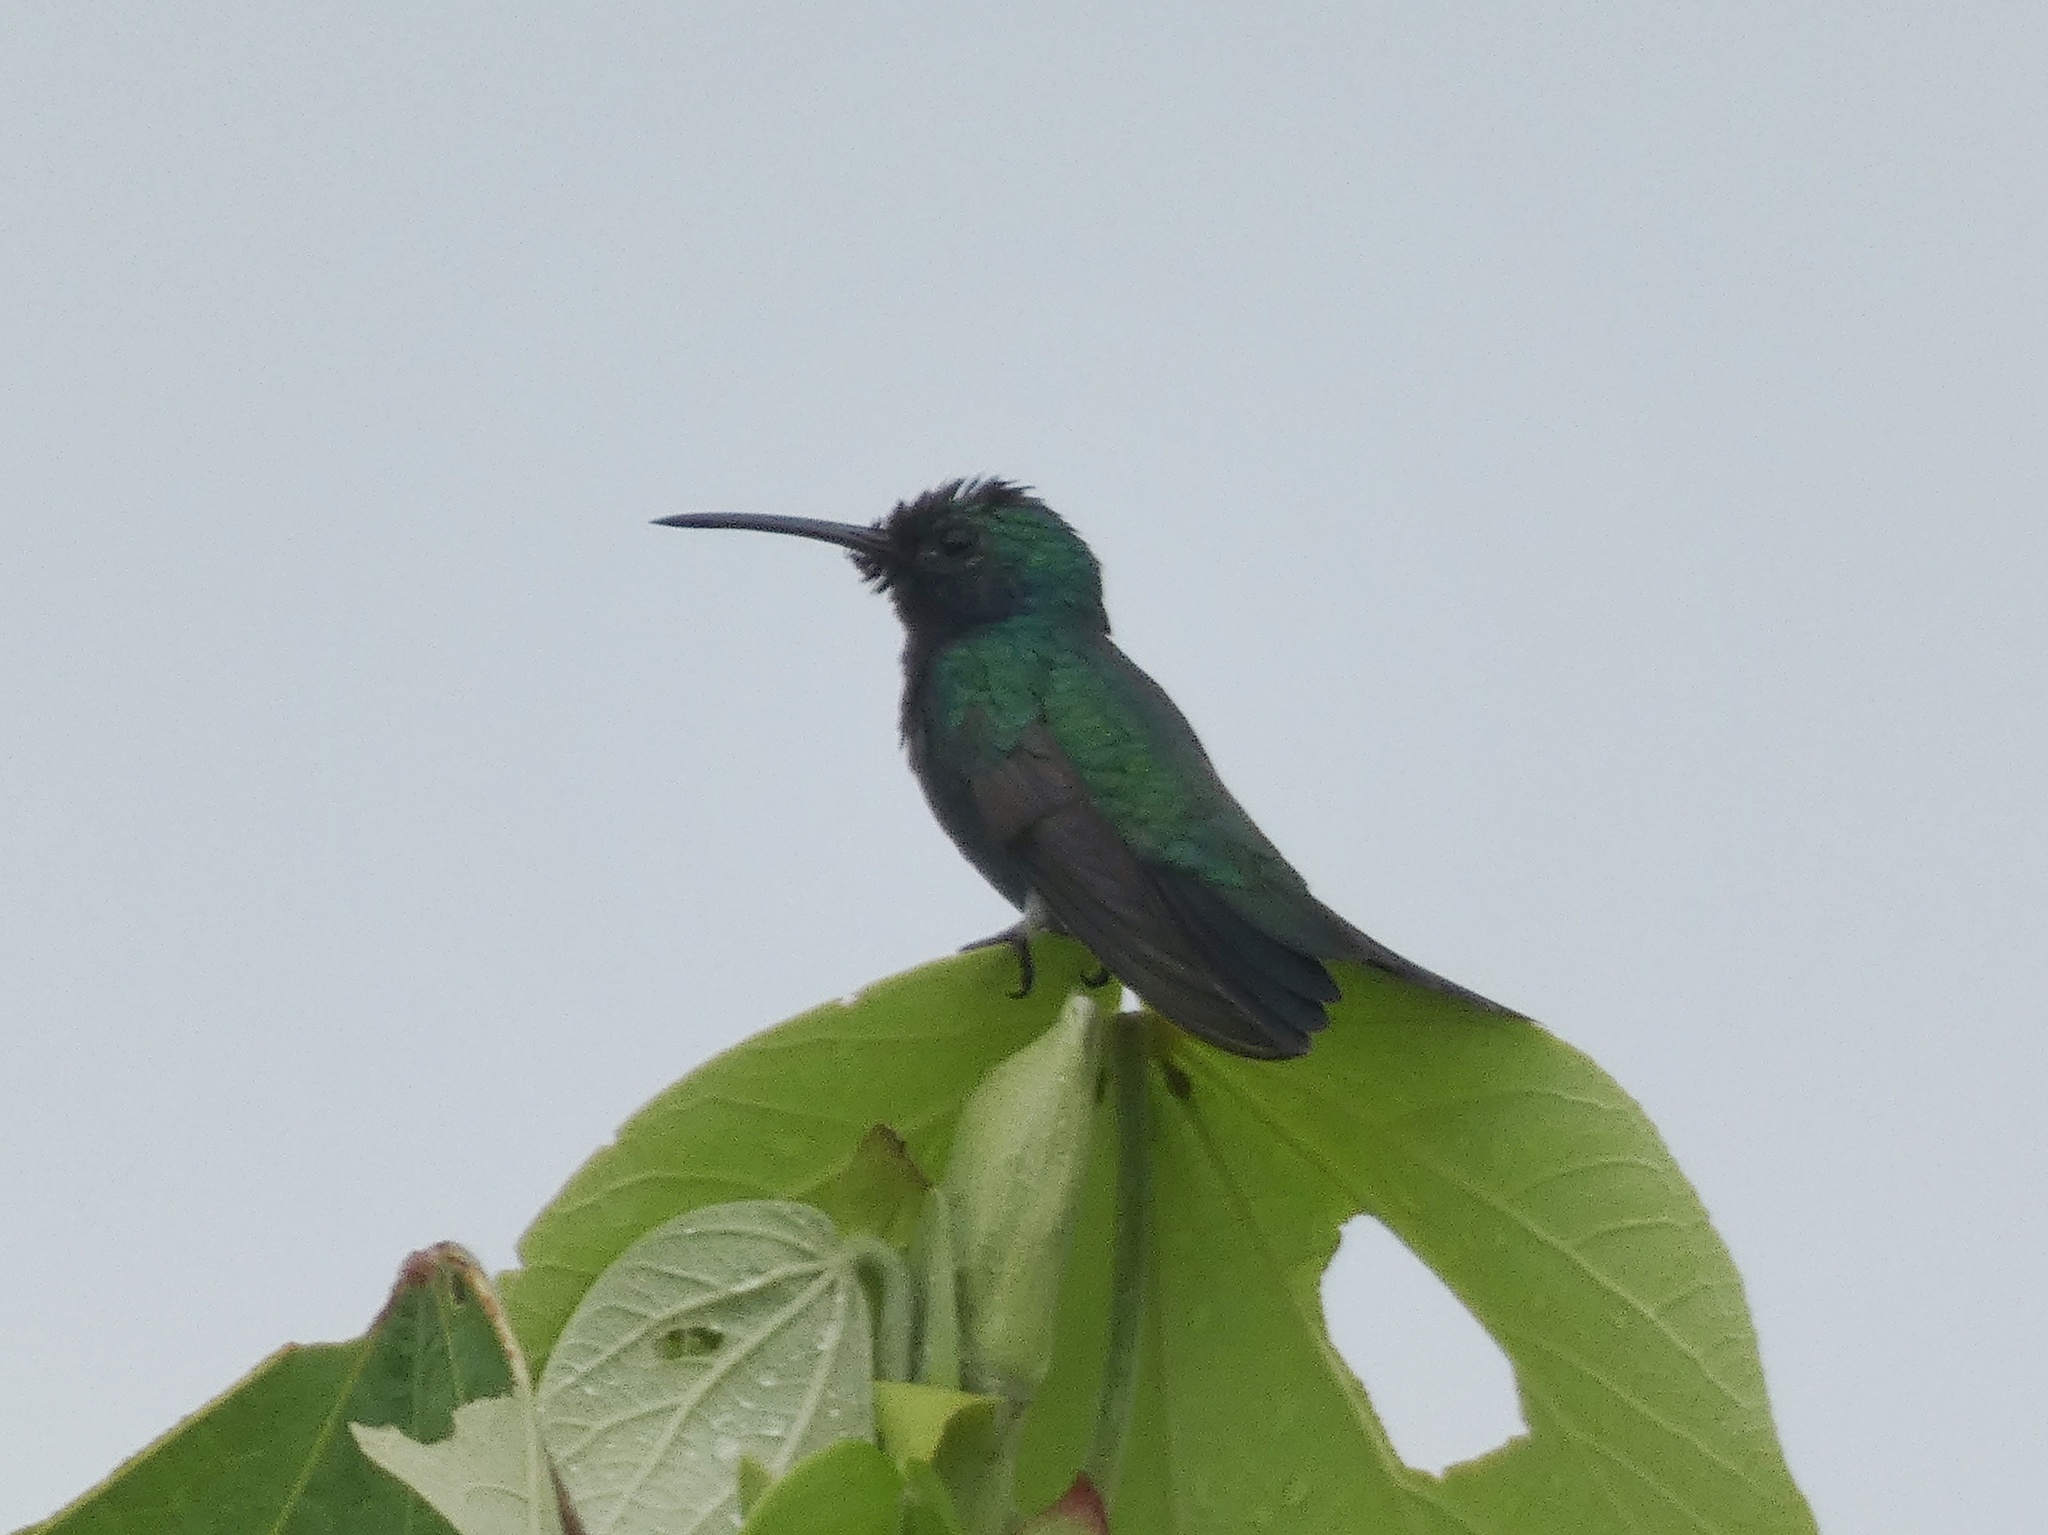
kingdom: Animalia
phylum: Chordata
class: Aves
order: Apodiformes
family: Trochilidae
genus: Chlorostilbon
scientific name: Chlorostilbon assimilis
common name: Garden emerald
